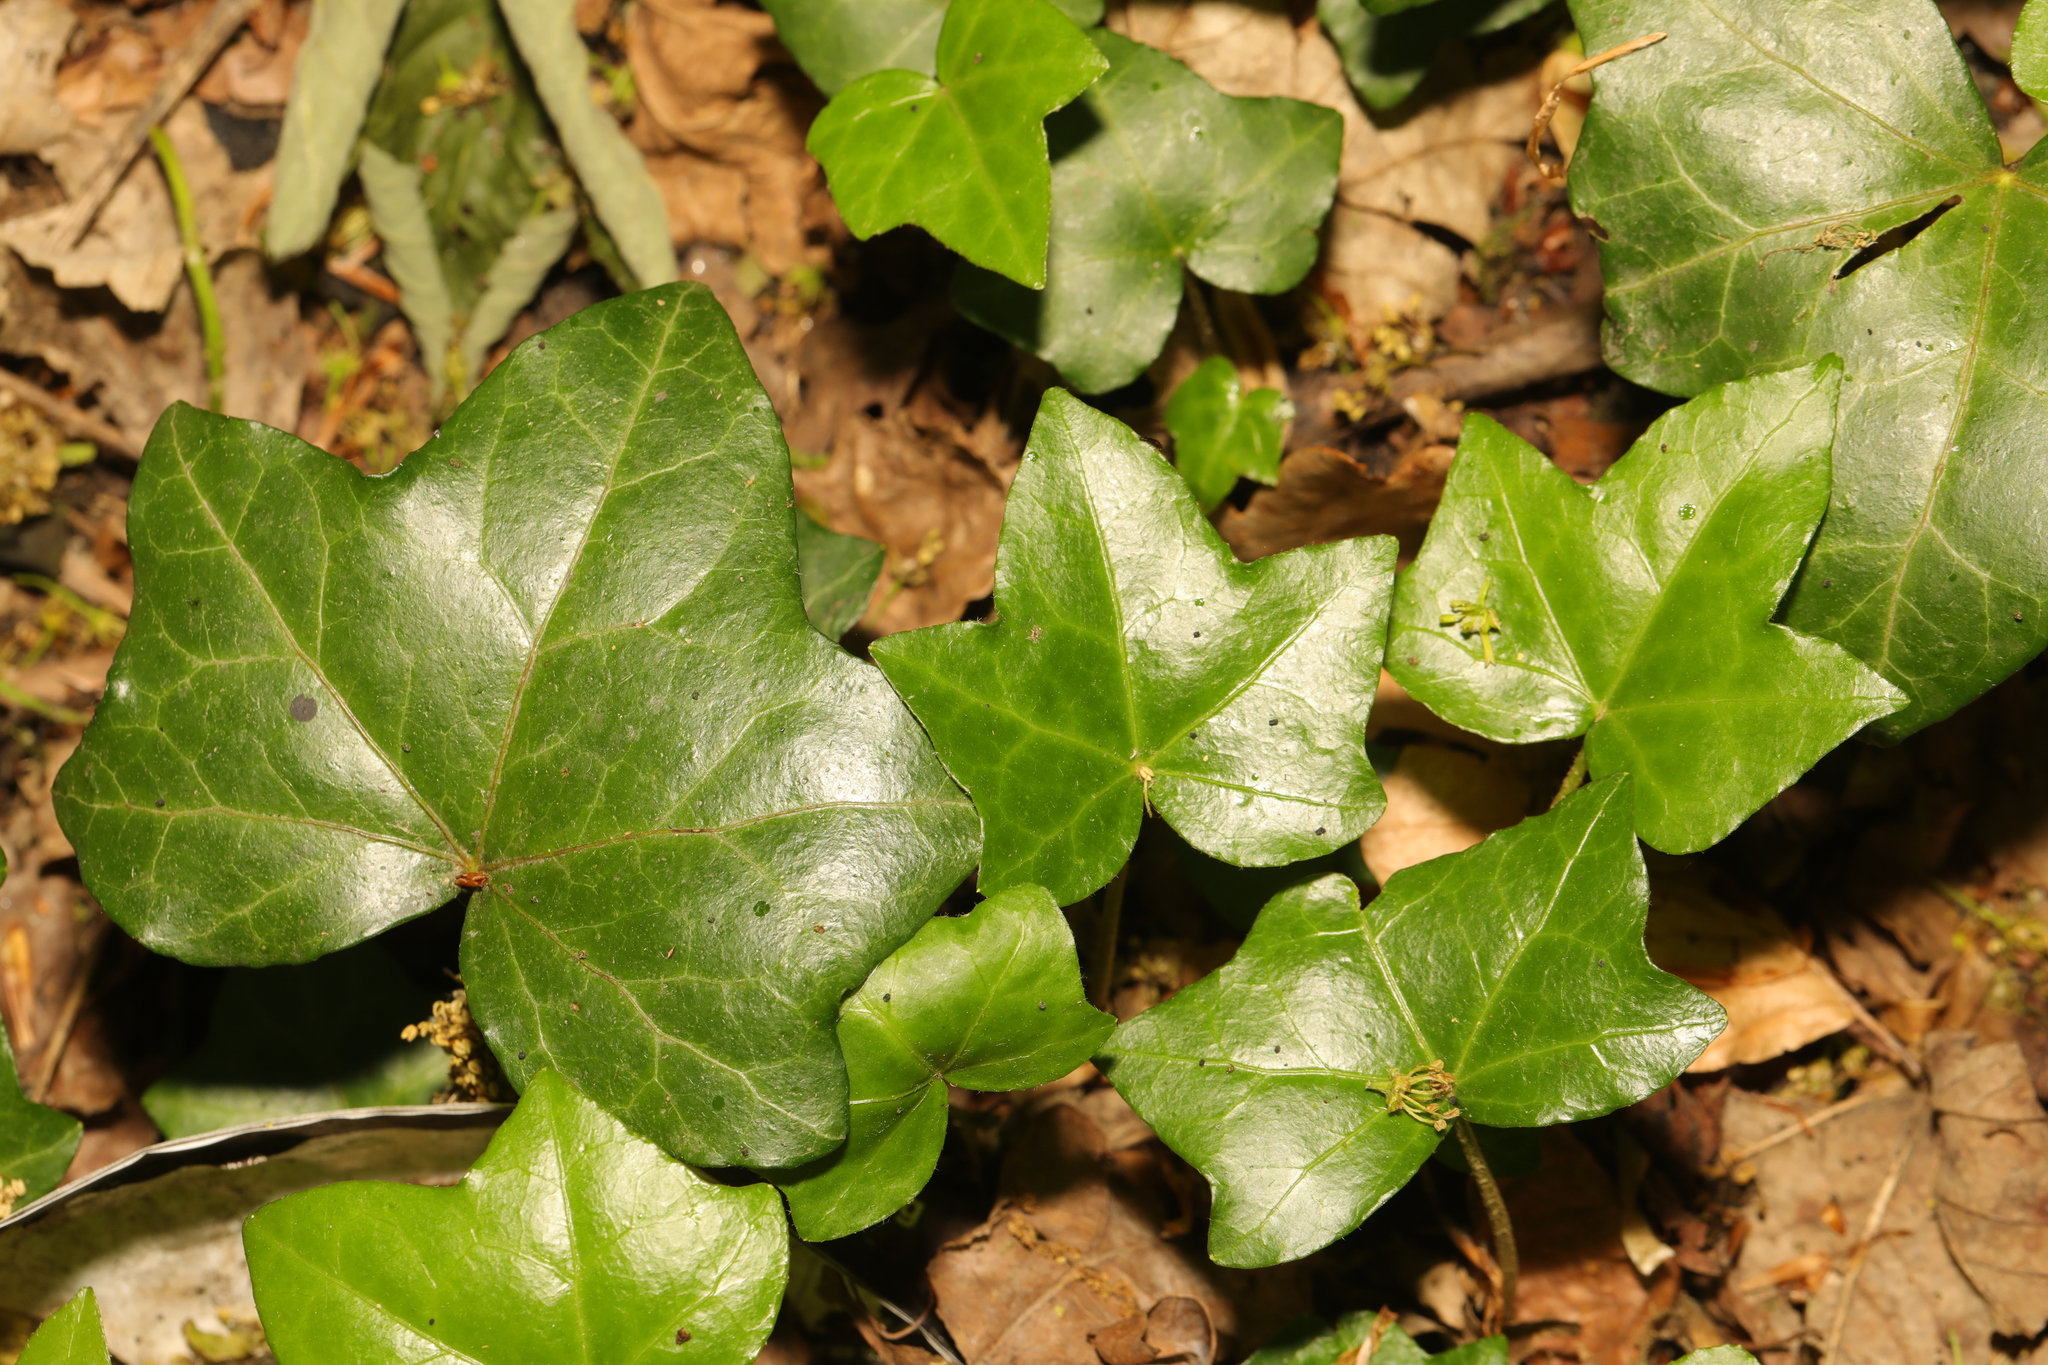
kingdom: Plantae
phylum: Tracheophyta
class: Magnoliopsida
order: Apiales
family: Araliaceae
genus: Hedera
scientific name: Hedera helix
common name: Ivy
